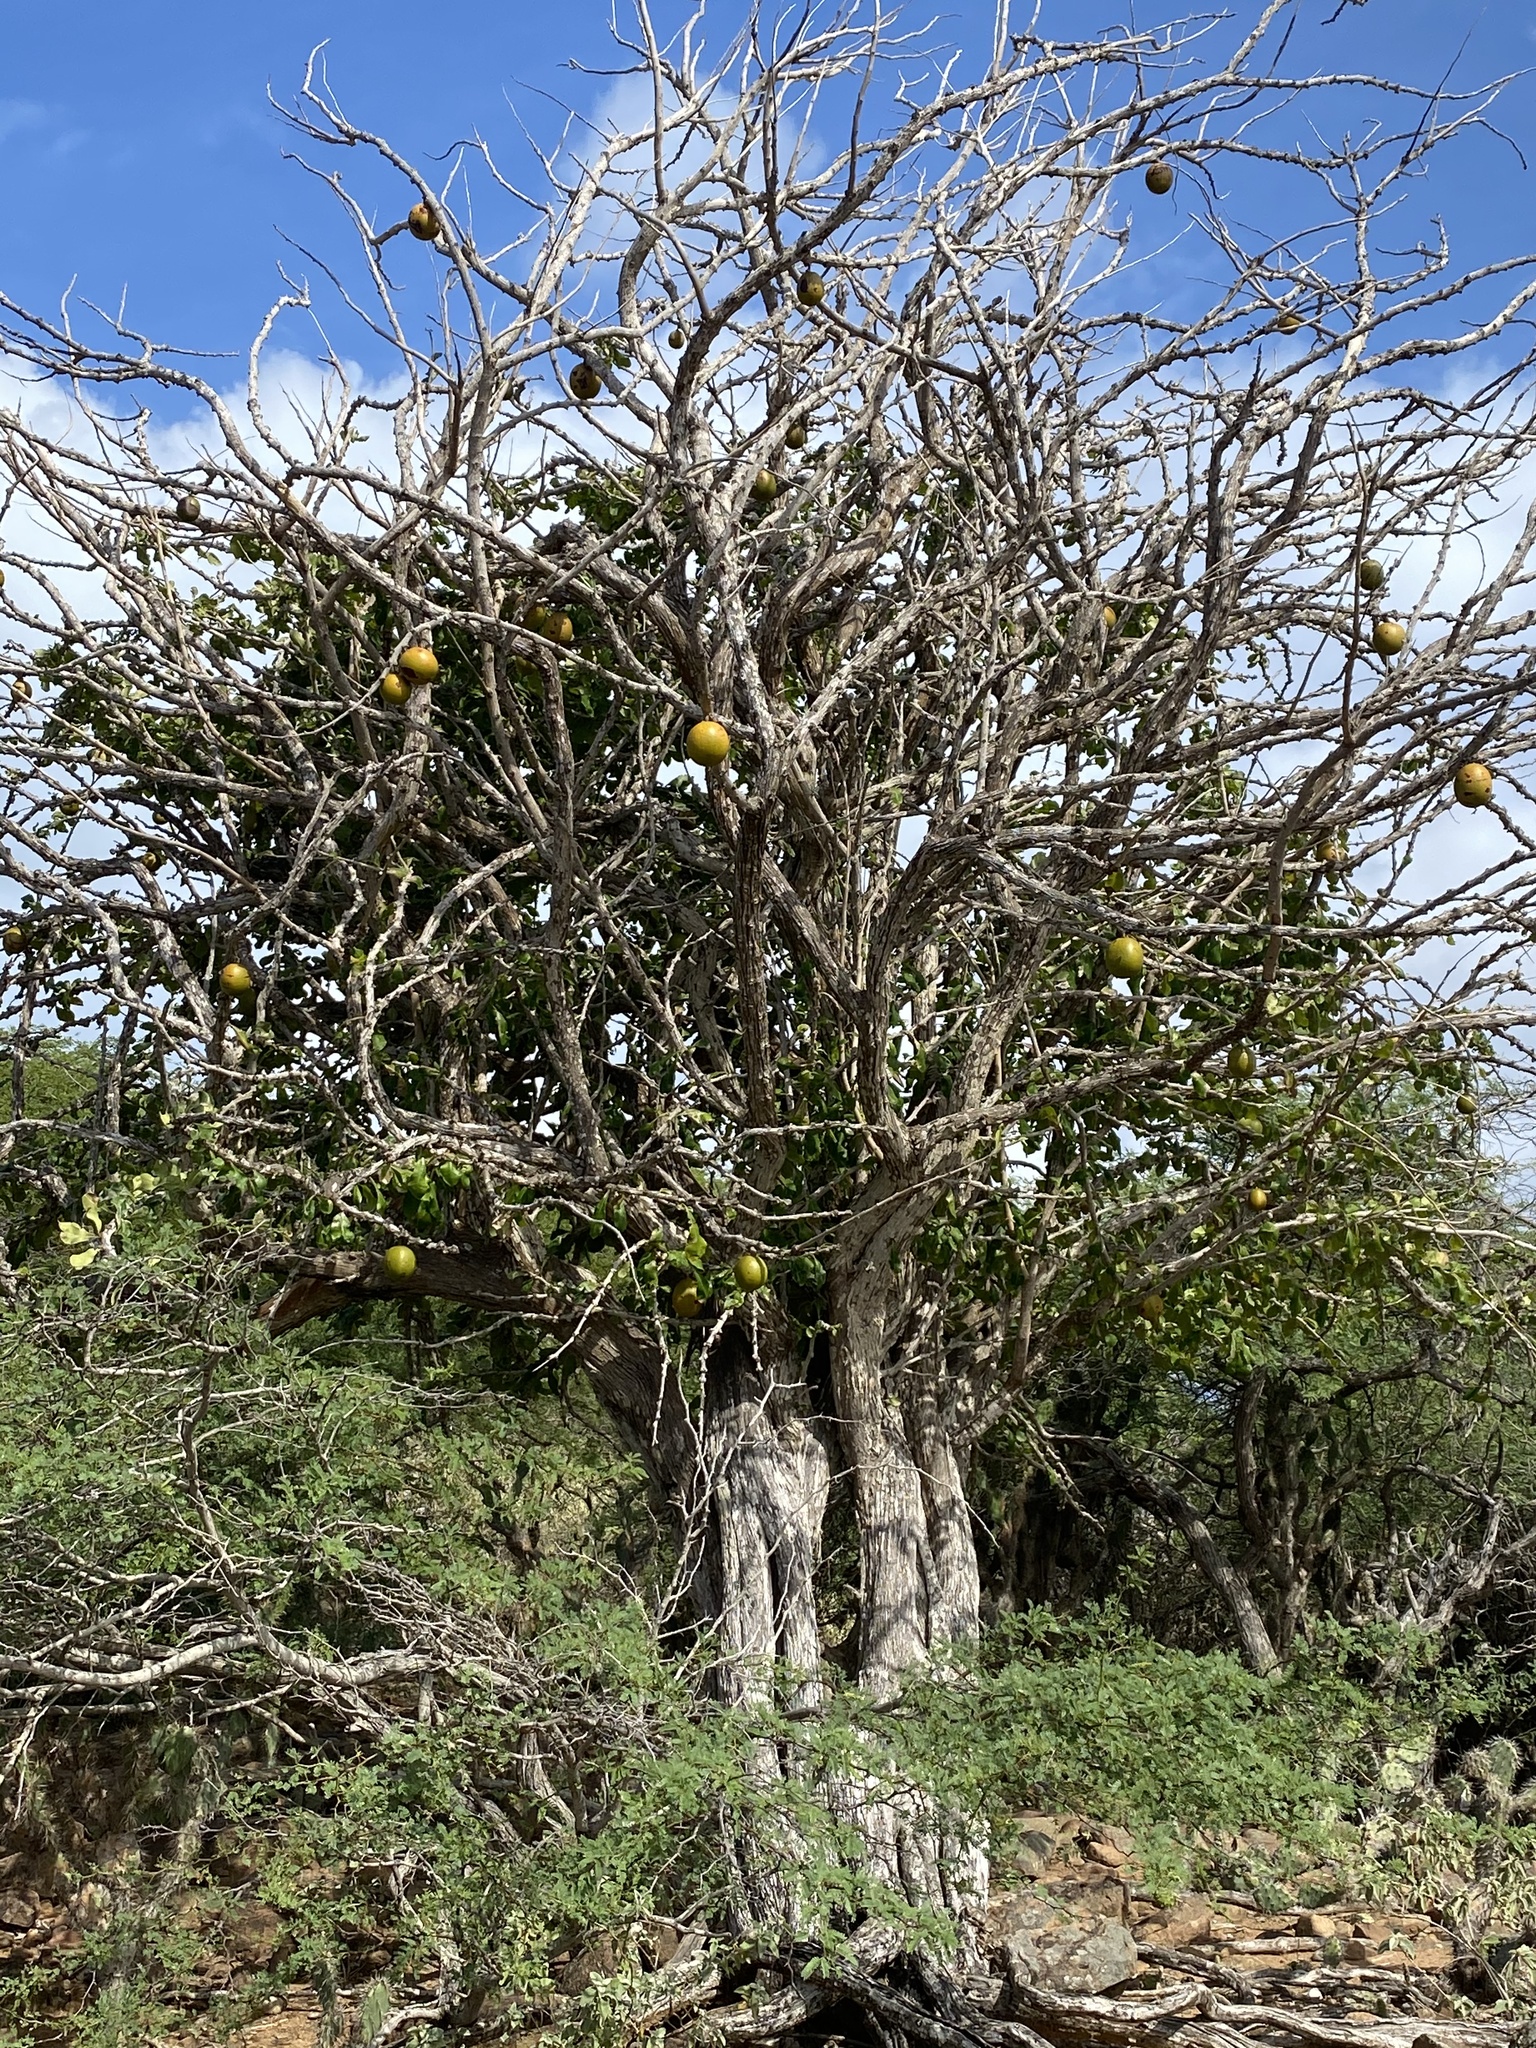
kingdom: Plantae
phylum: Tracheophyta
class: Magnoliopsida
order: Lamiales
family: Bignoniaceae
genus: Crescentia
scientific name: Crescentia cujete
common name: Calabash
